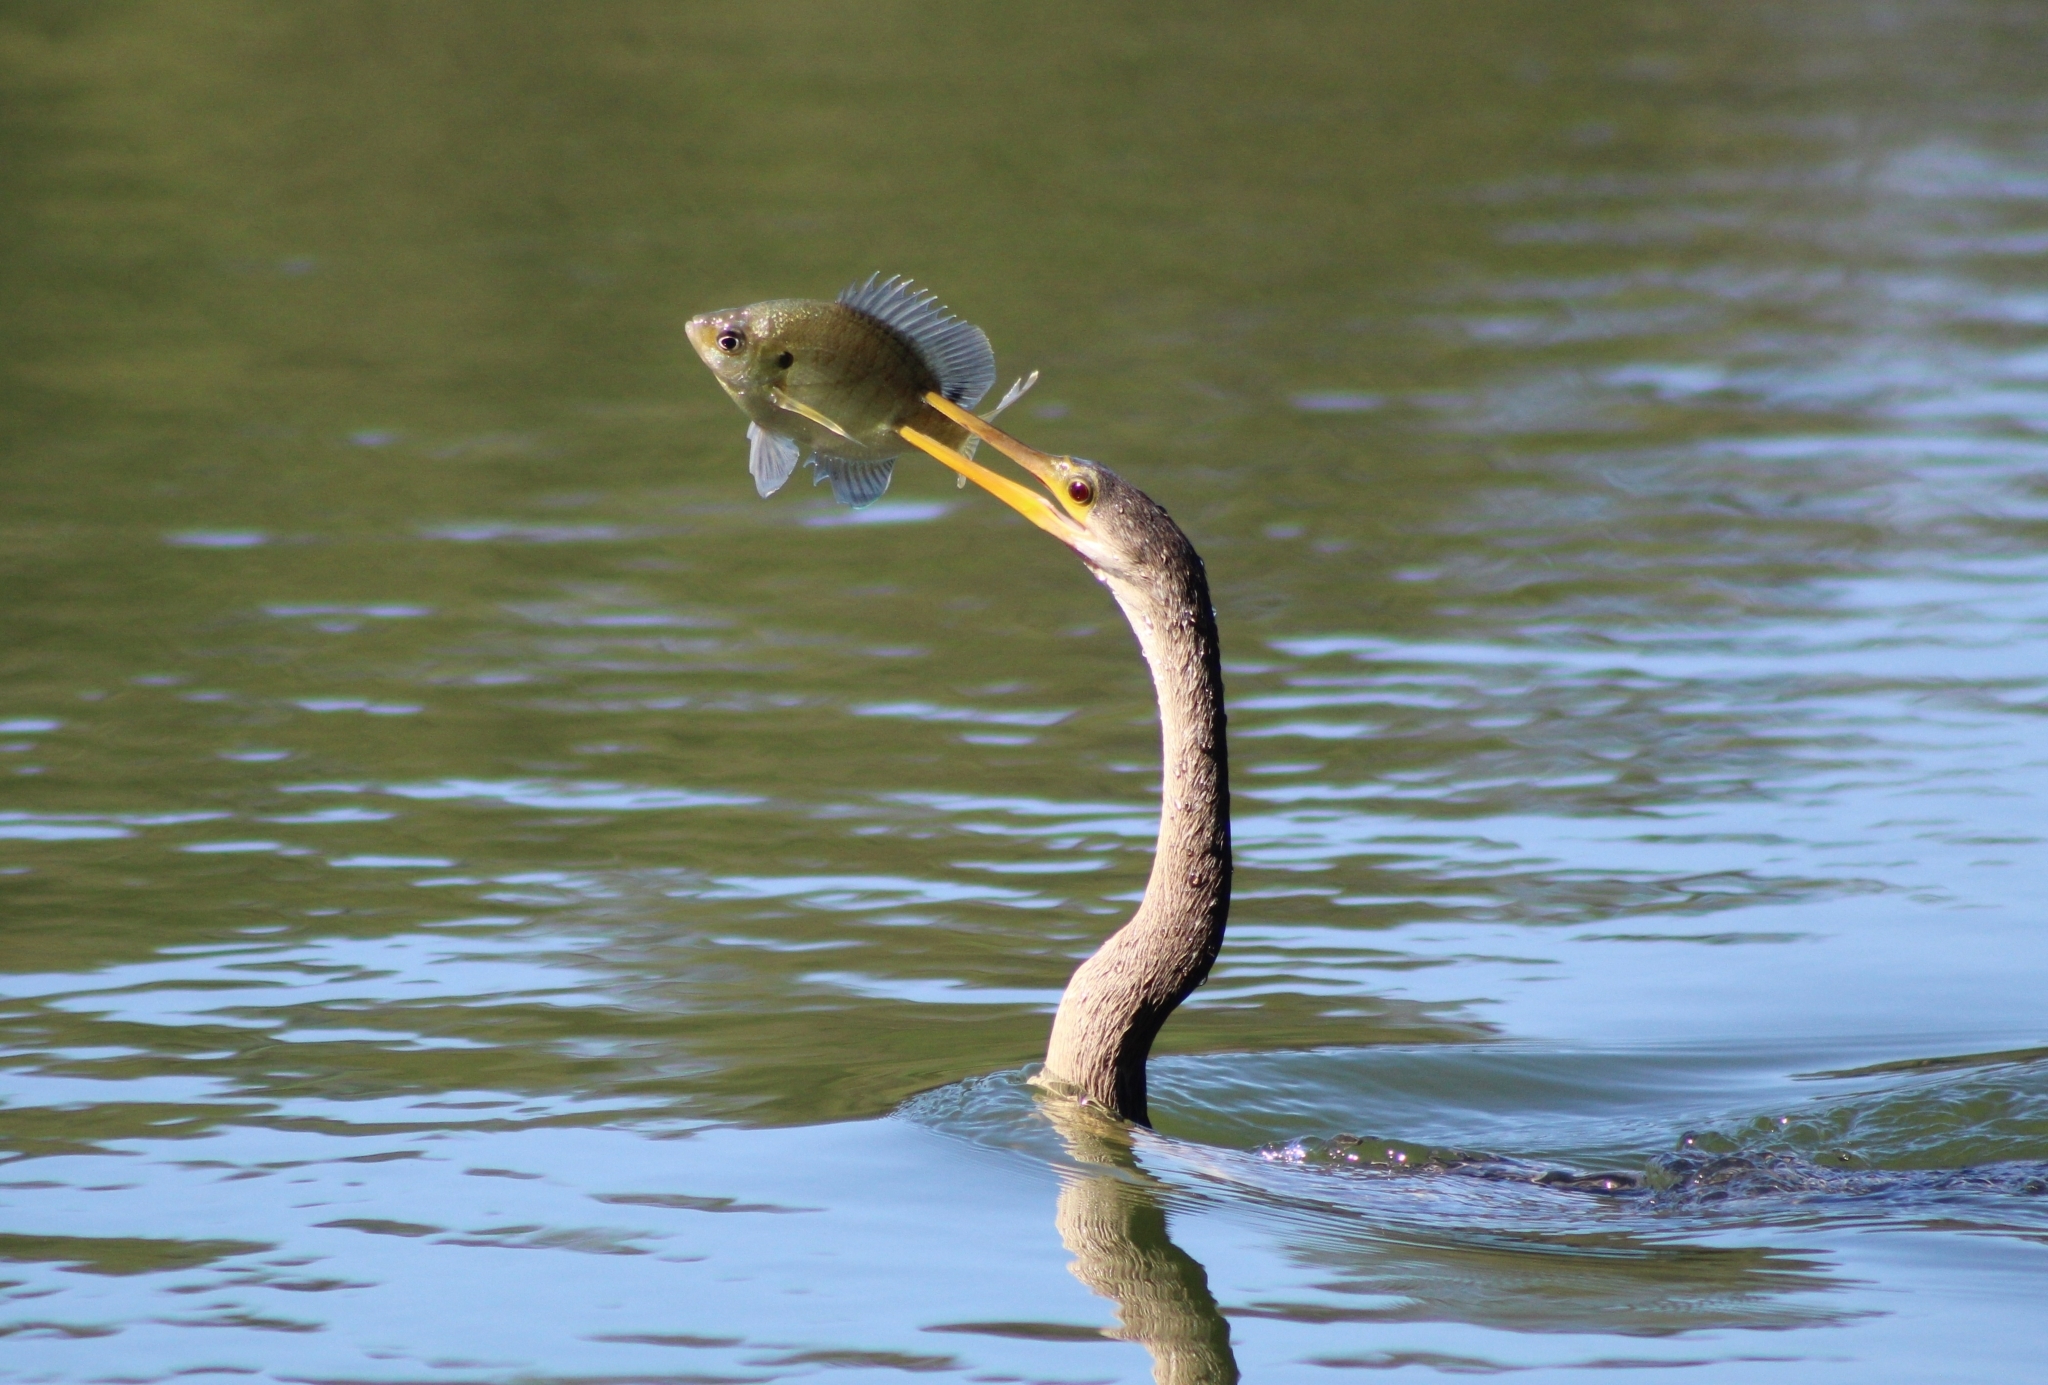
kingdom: Animalia
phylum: Chordata
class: Aves
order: Suliformes
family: Anhingidae
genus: Anhinga
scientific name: Anhinga anhinga
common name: Anhinga
